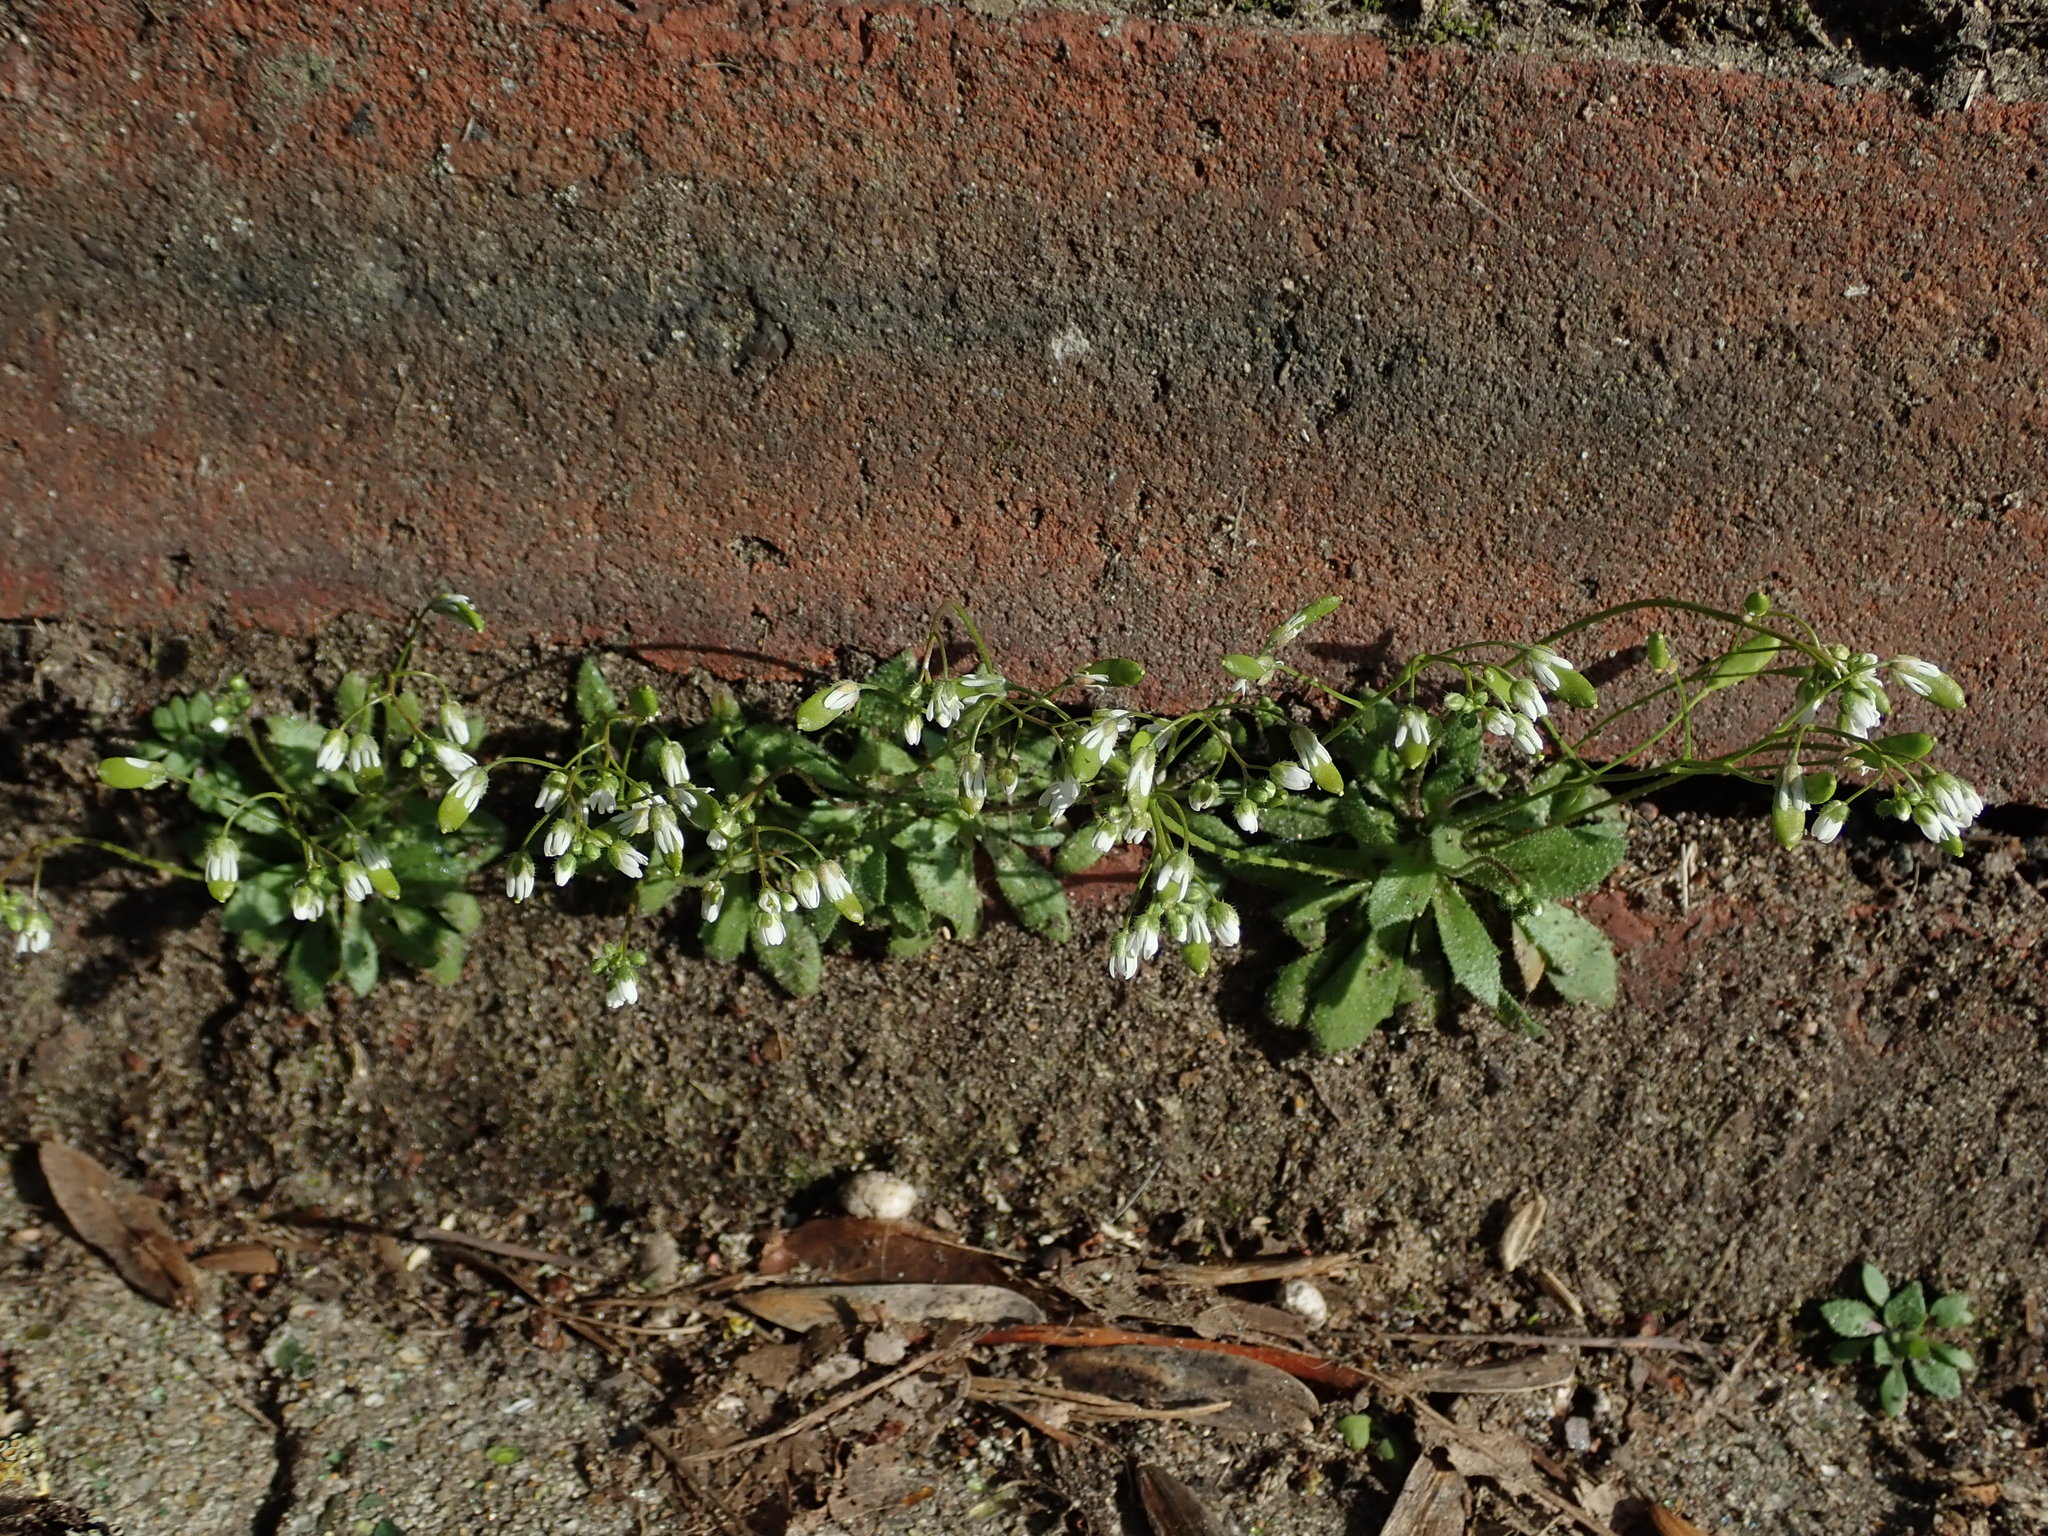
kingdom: Plantae
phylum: Tracheophyta
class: Magnoliopsida
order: Brassicales
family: Brassicaceae
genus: Draba
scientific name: Draba verna
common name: Spring draba
